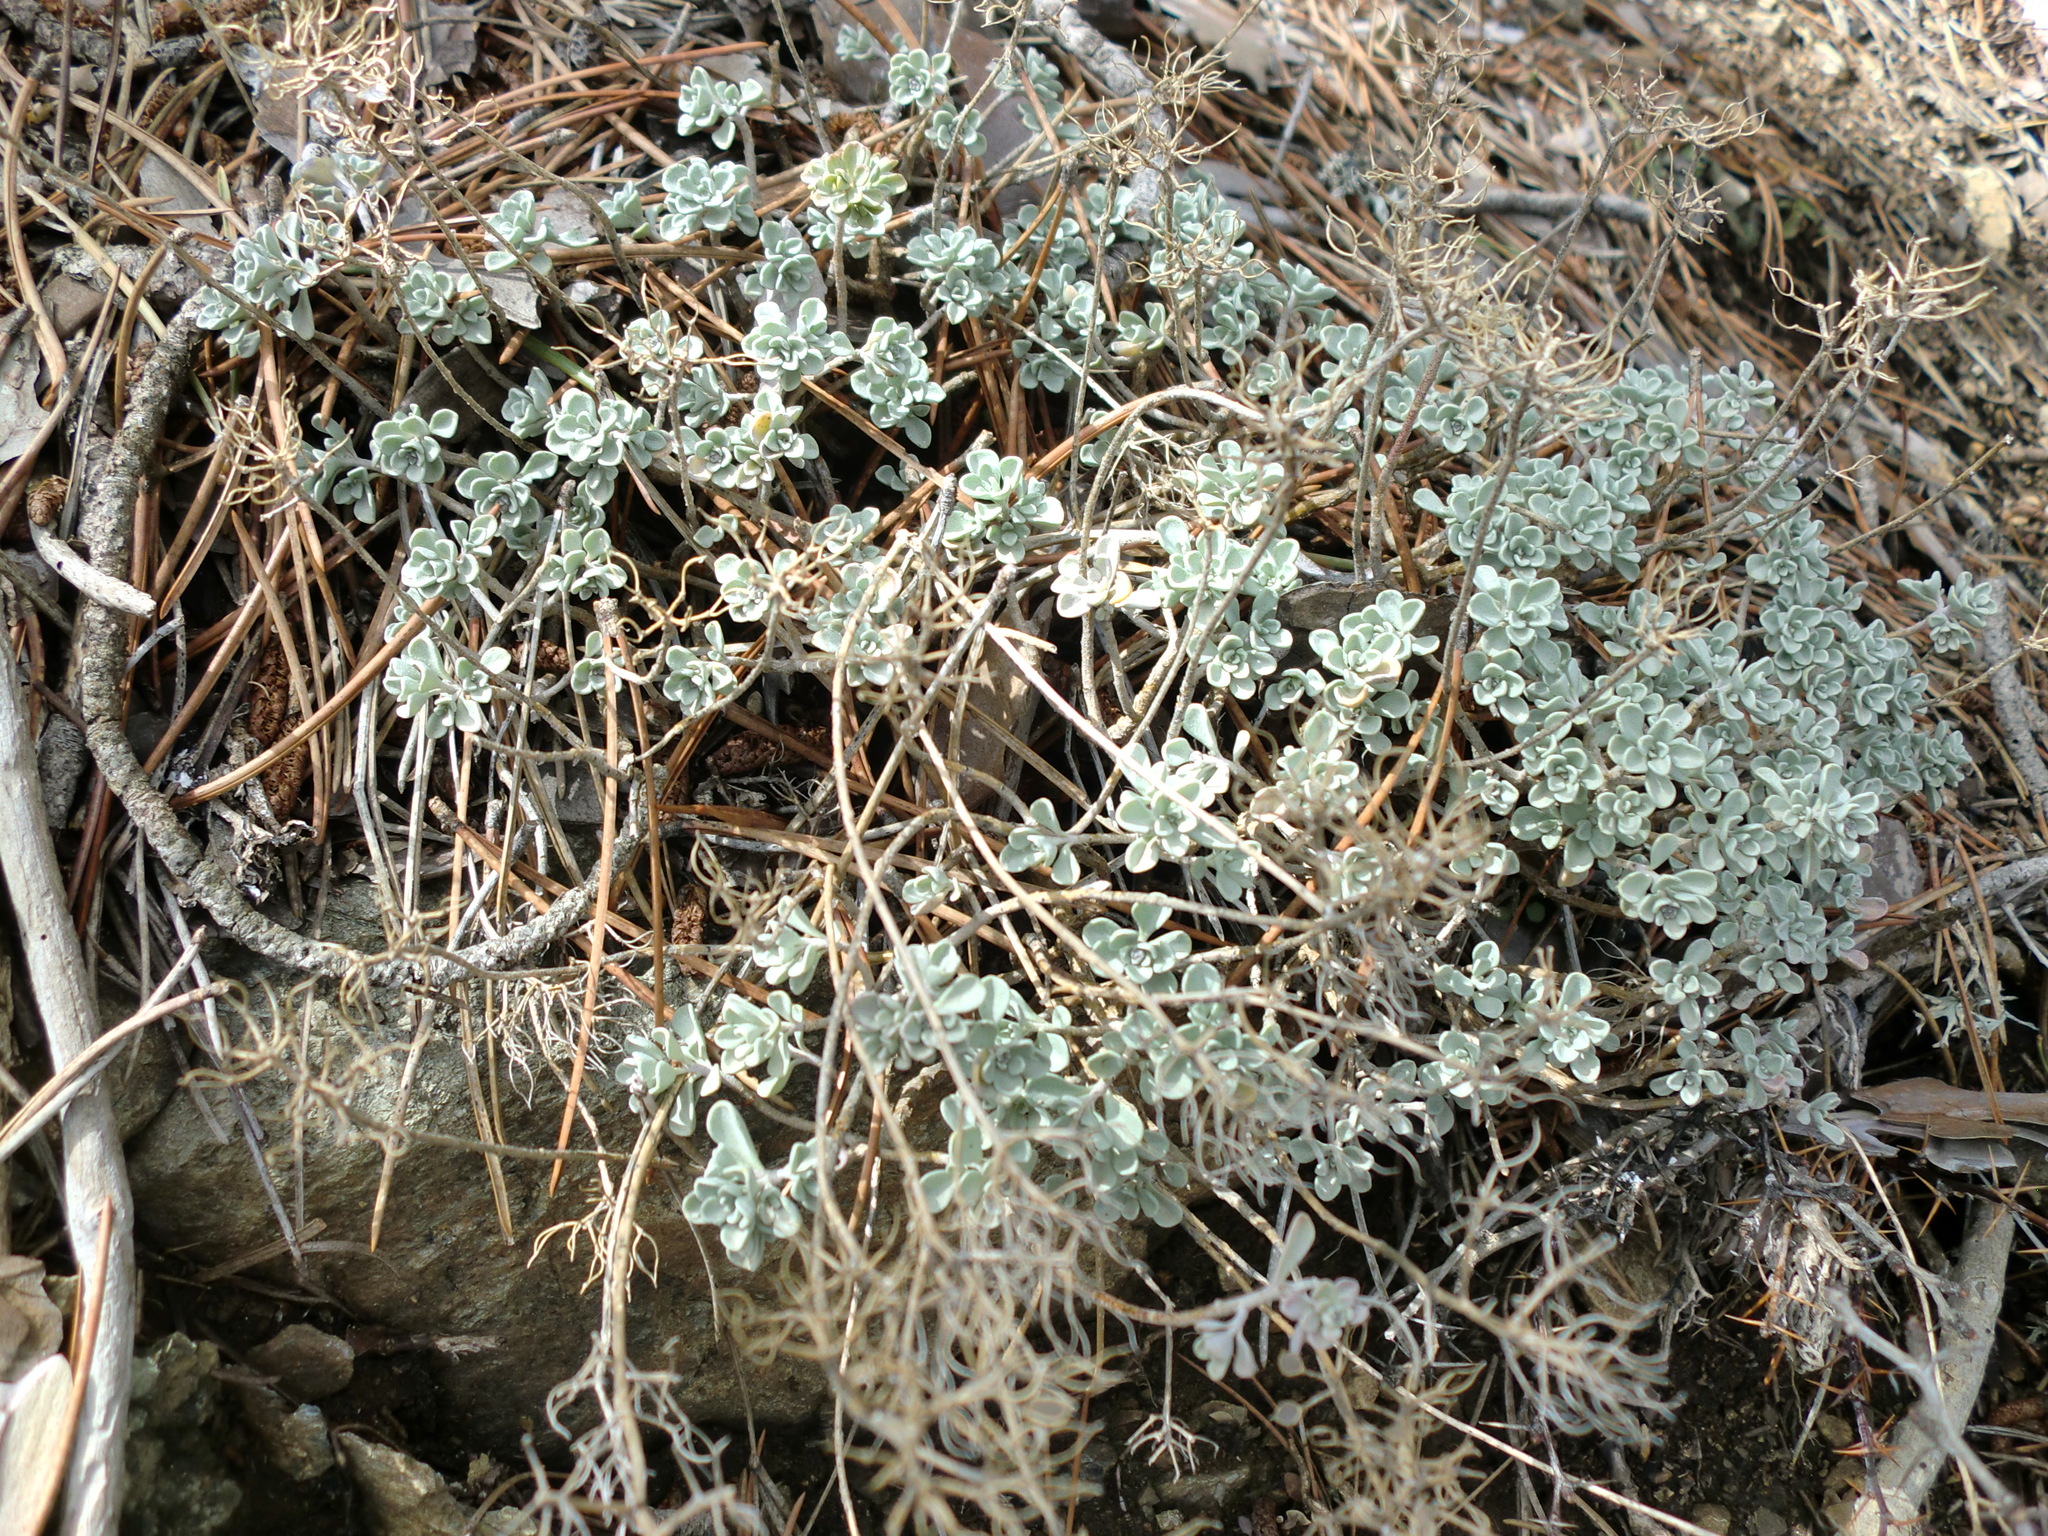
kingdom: Plantae
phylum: Tracheophyta
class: Magnoliopsida
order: Brassicales
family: Brassicaceae
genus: Odontarrhena
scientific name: Odontarrhena troodi
